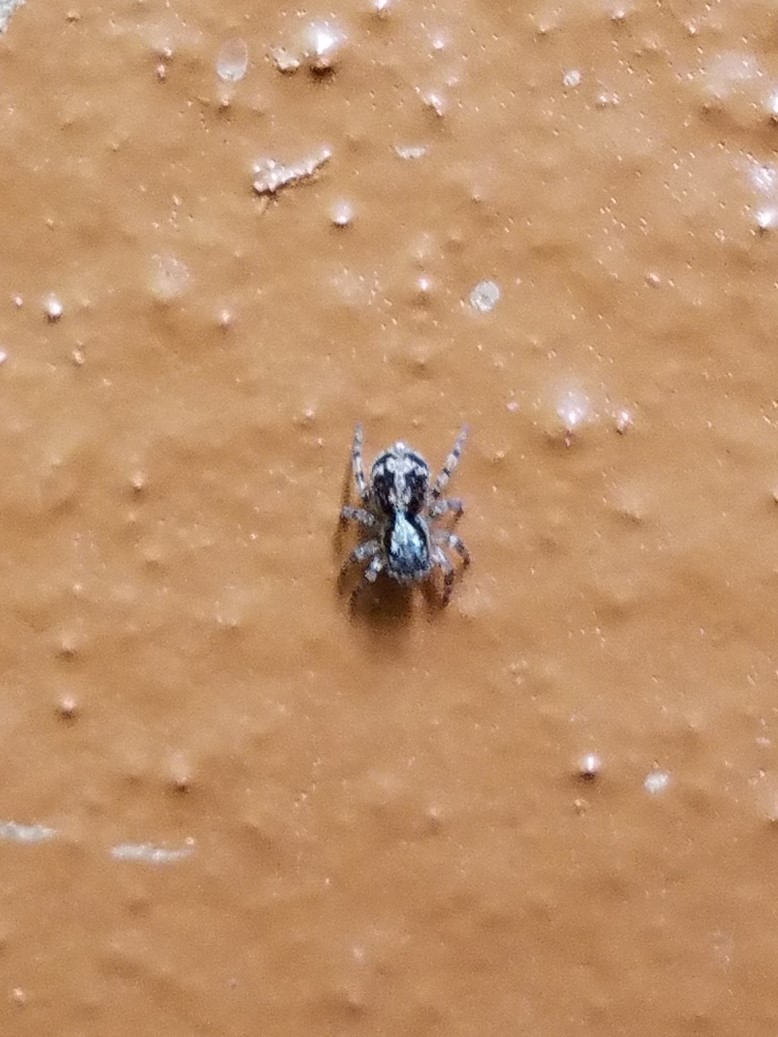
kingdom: Animalia
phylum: Arthropoda
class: Arachnida
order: Araneae
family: Salticidae
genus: Naphrys
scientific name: Naphrys pulex
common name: Flea jumping spider
